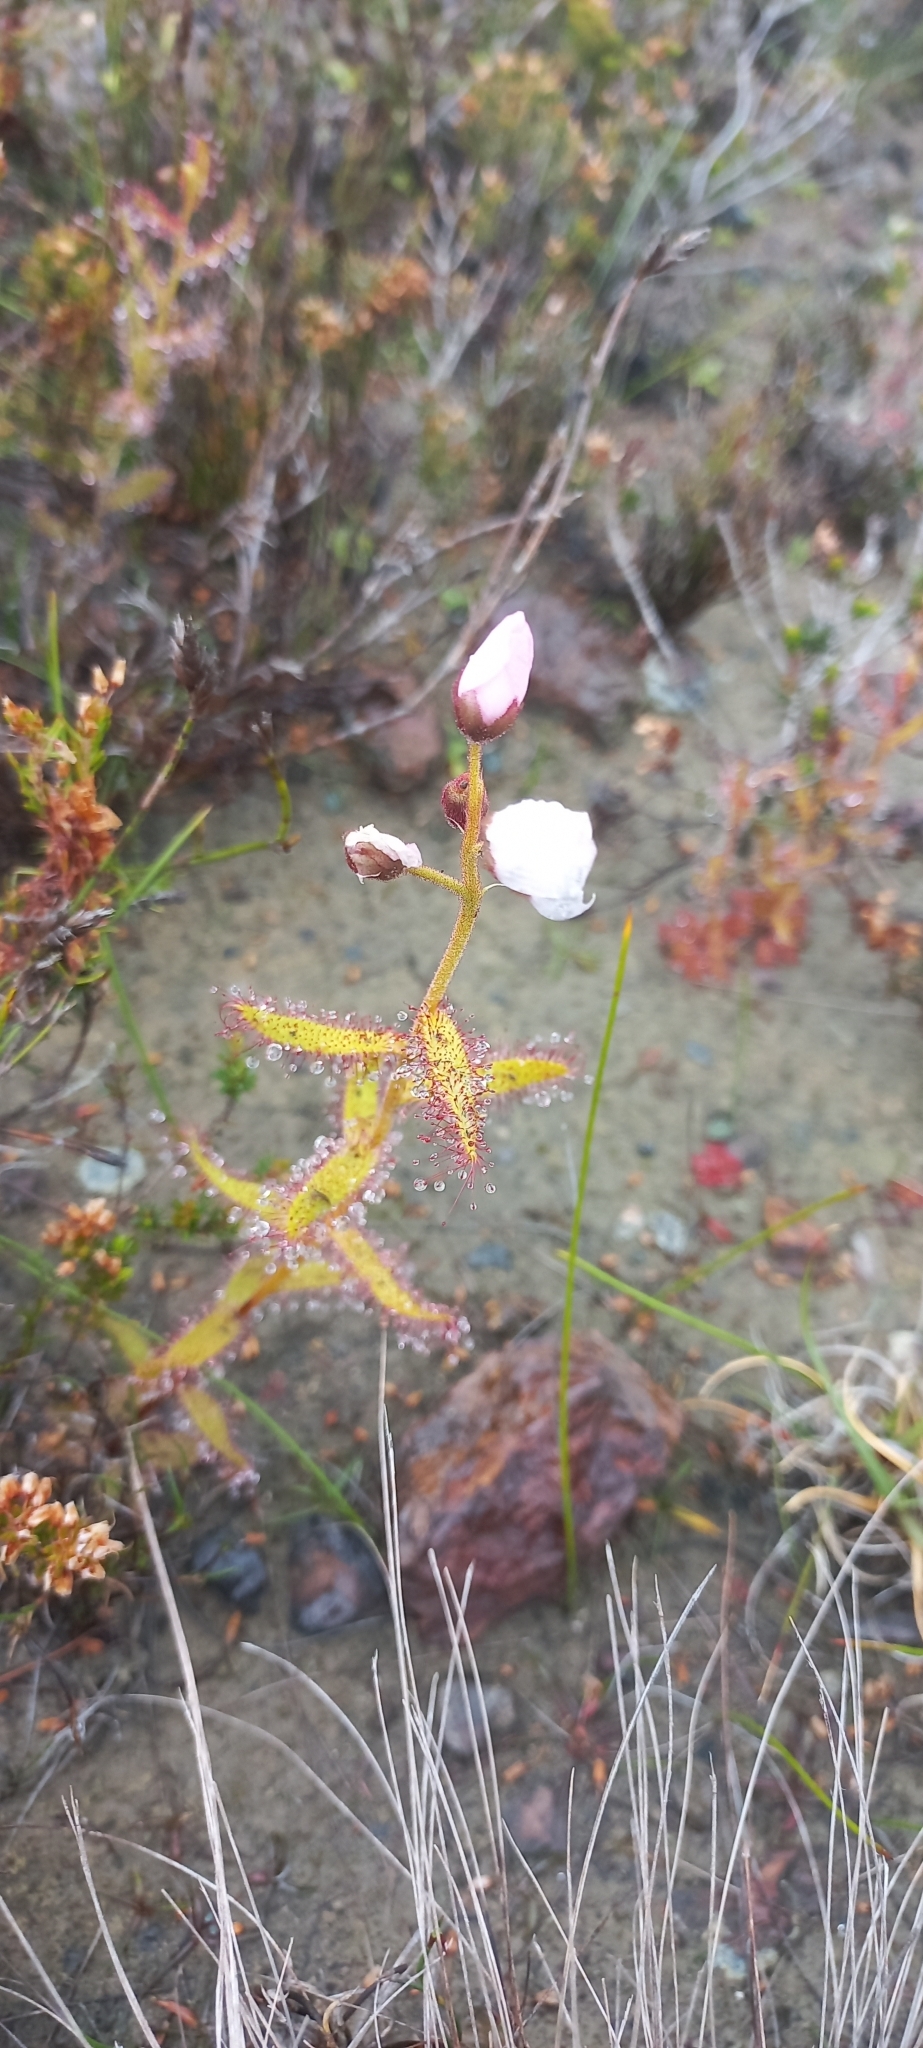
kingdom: Plantae
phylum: Tracheophyta
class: Magnoliopsida
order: Caryophyllales
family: Droseraceae
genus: Drosera
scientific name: Drosera cistiflora
